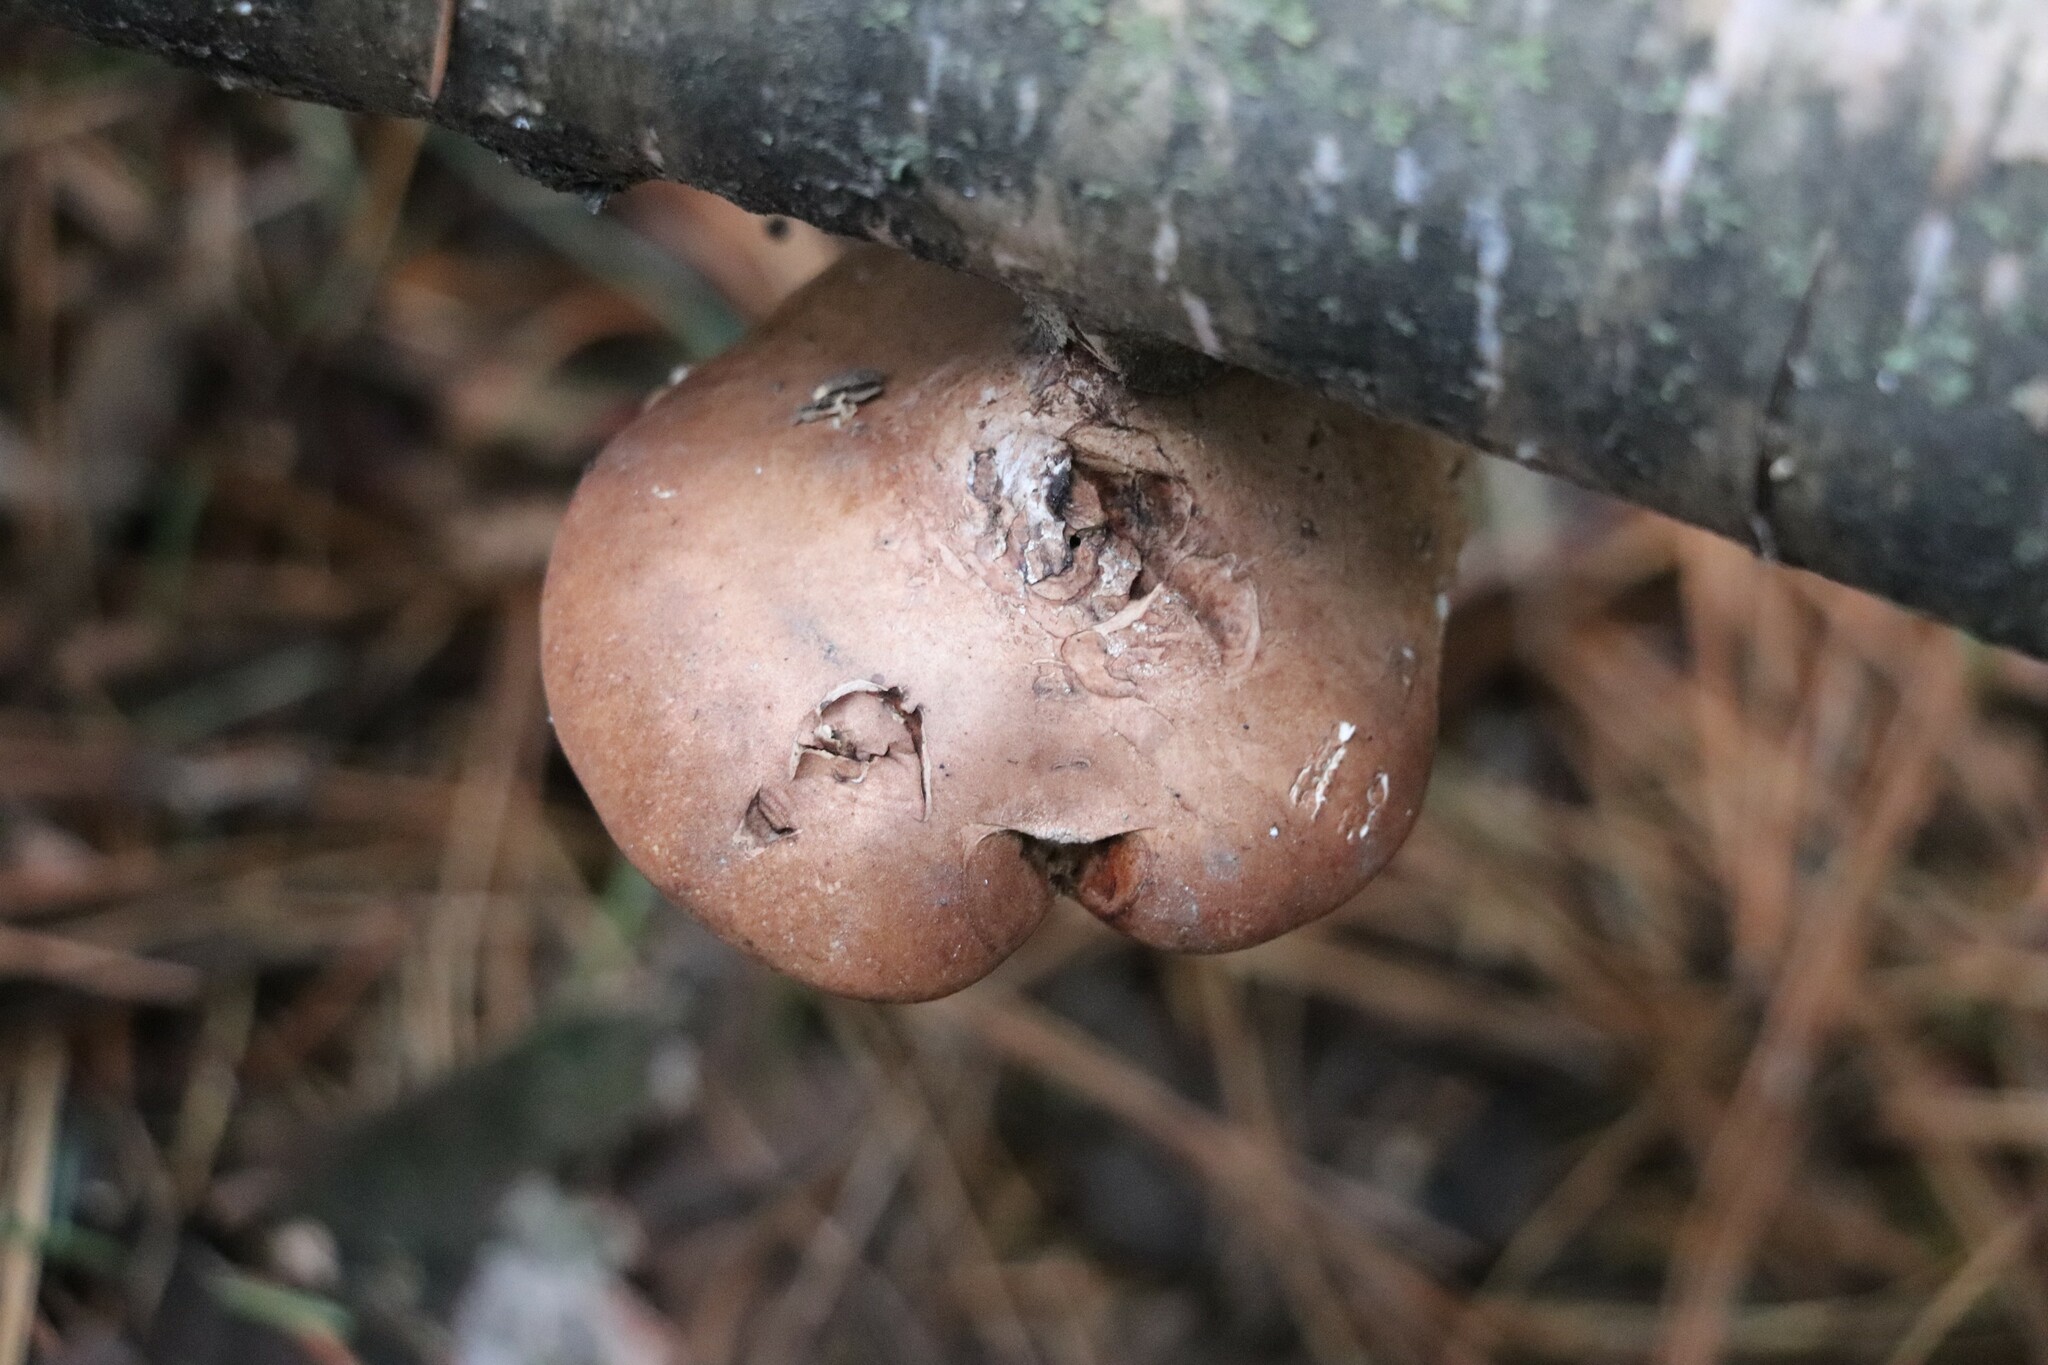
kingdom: Fungi
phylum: Basidiomycota
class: Agaricomycetes
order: Polyporales
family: Fomitopsidaceae
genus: Fomitopsis
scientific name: Fomitopsis betulina
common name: Birch polypore
